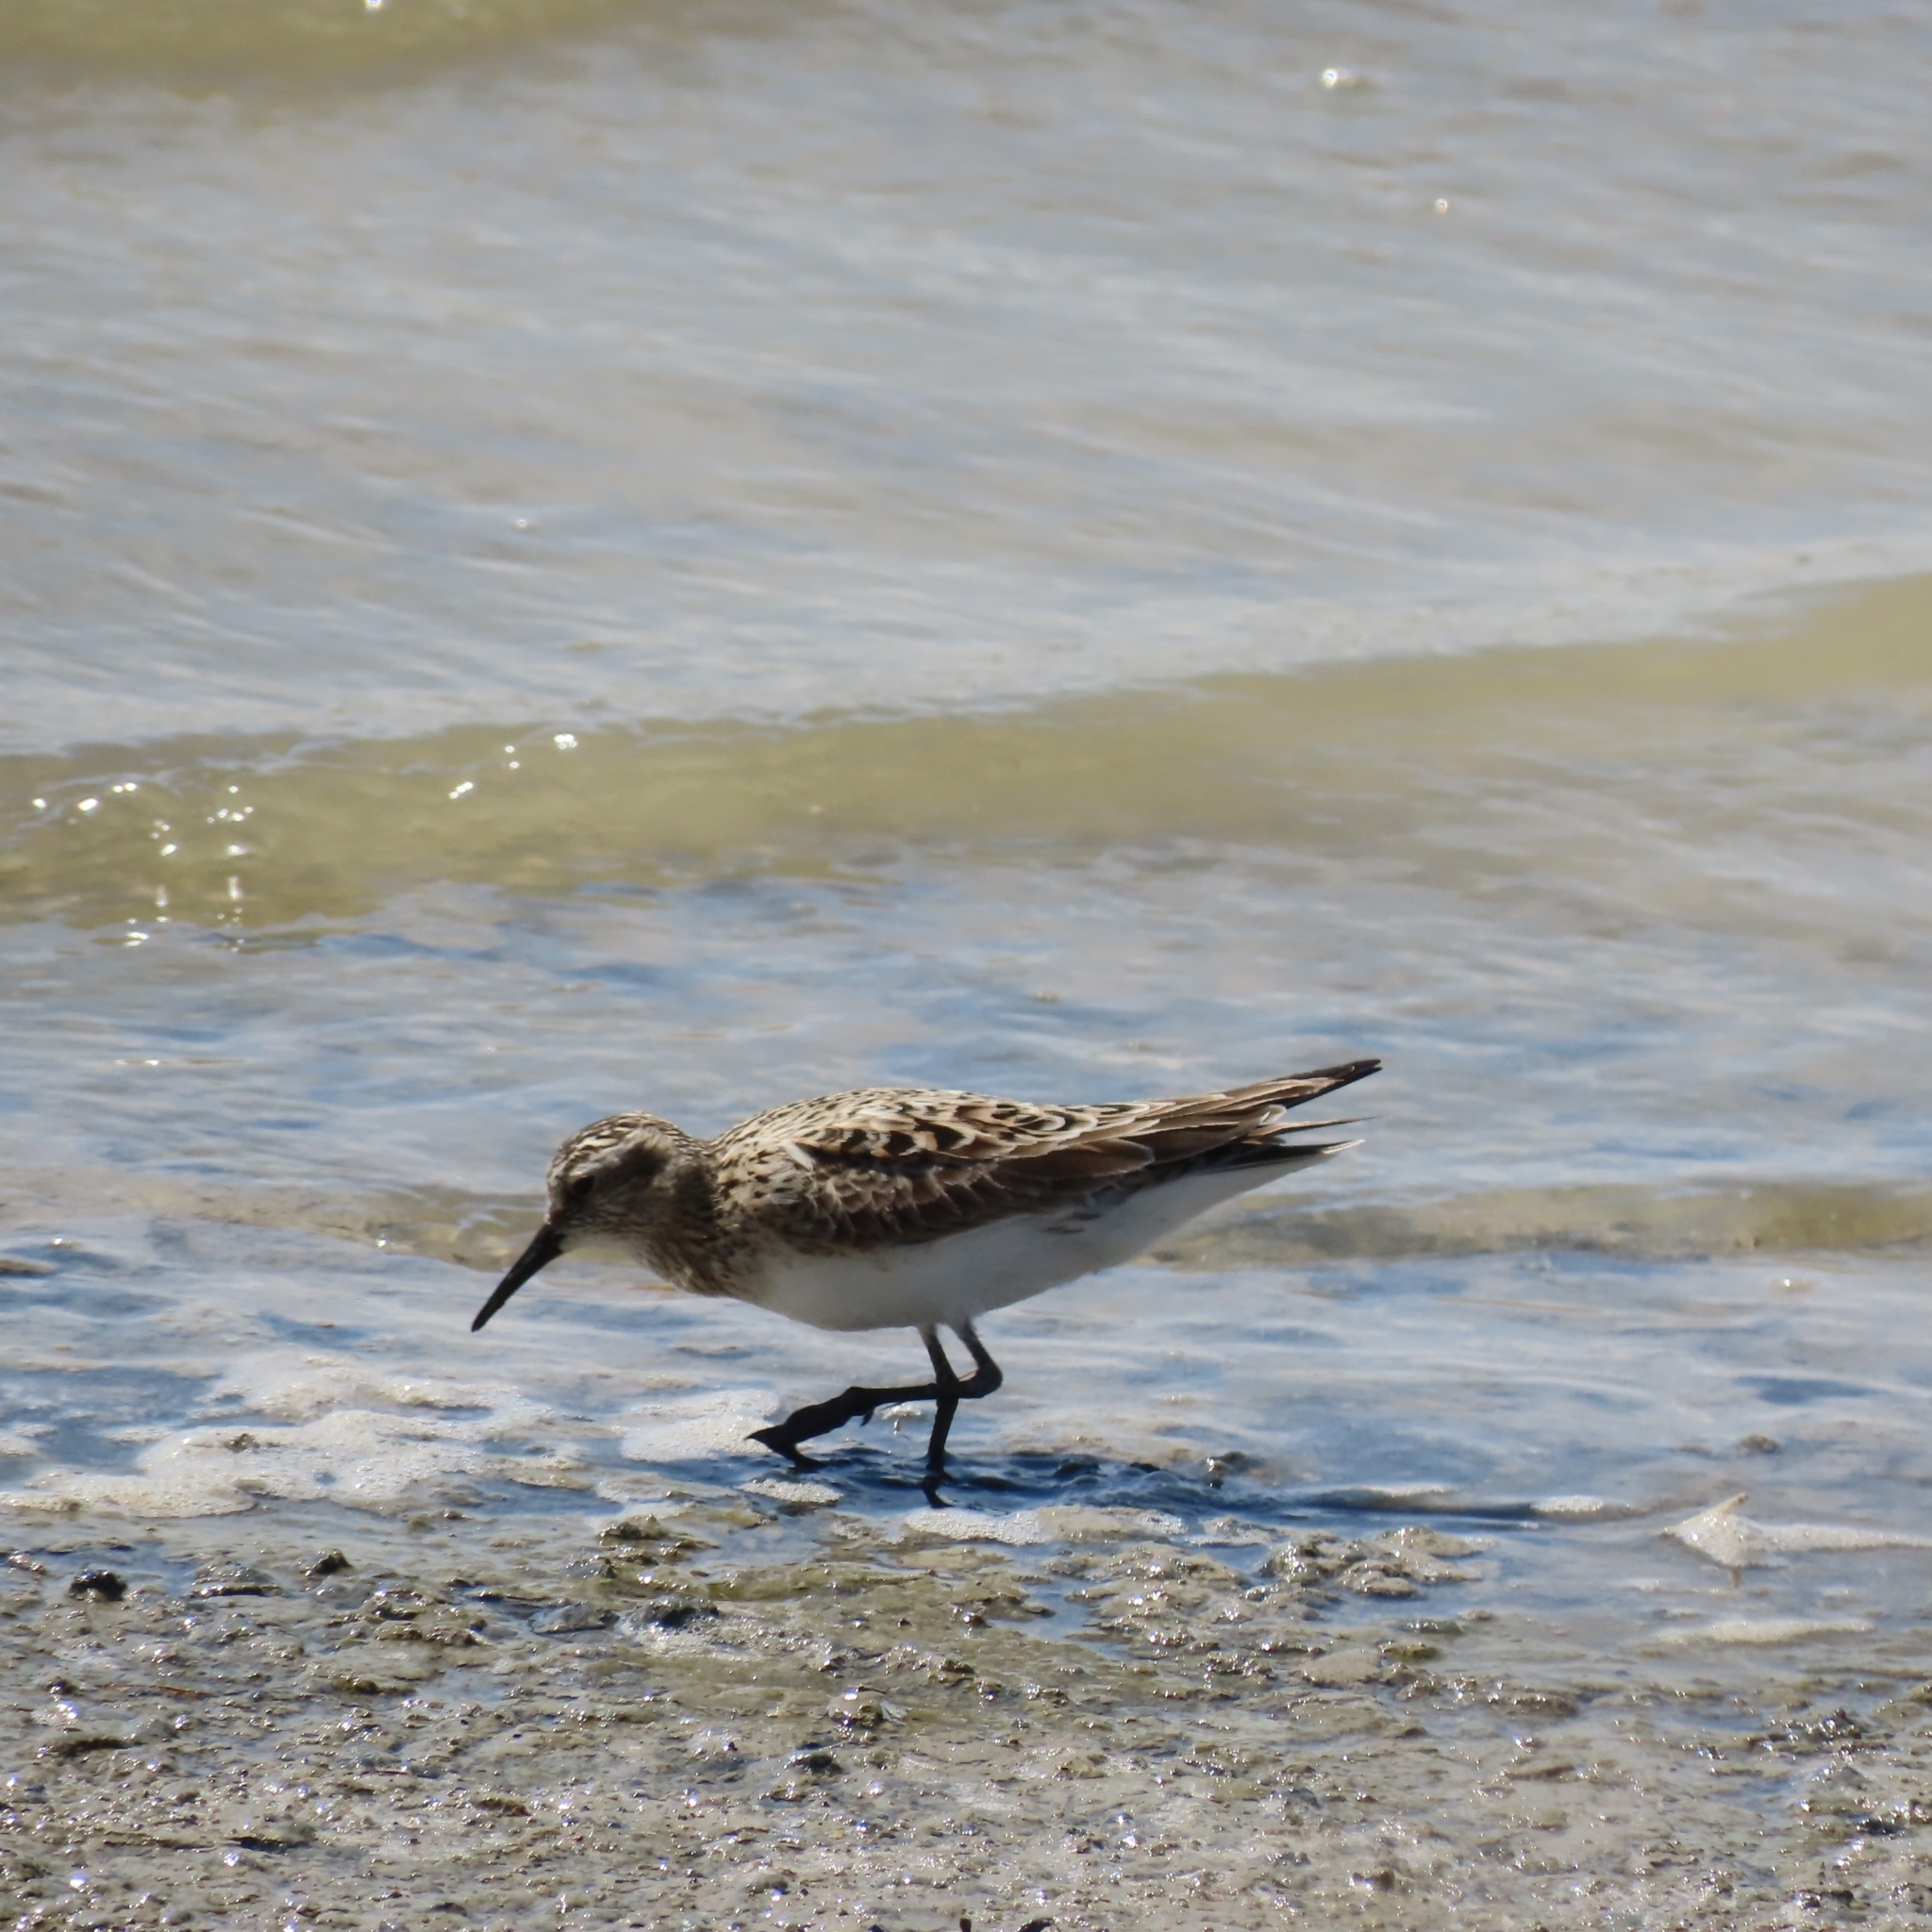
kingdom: Animalia
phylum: Chordata
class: Aves
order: Charadriiformes
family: Scolopacidae
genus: Calidris
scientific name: Calidris bairdii
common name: Baird's sandpiper
